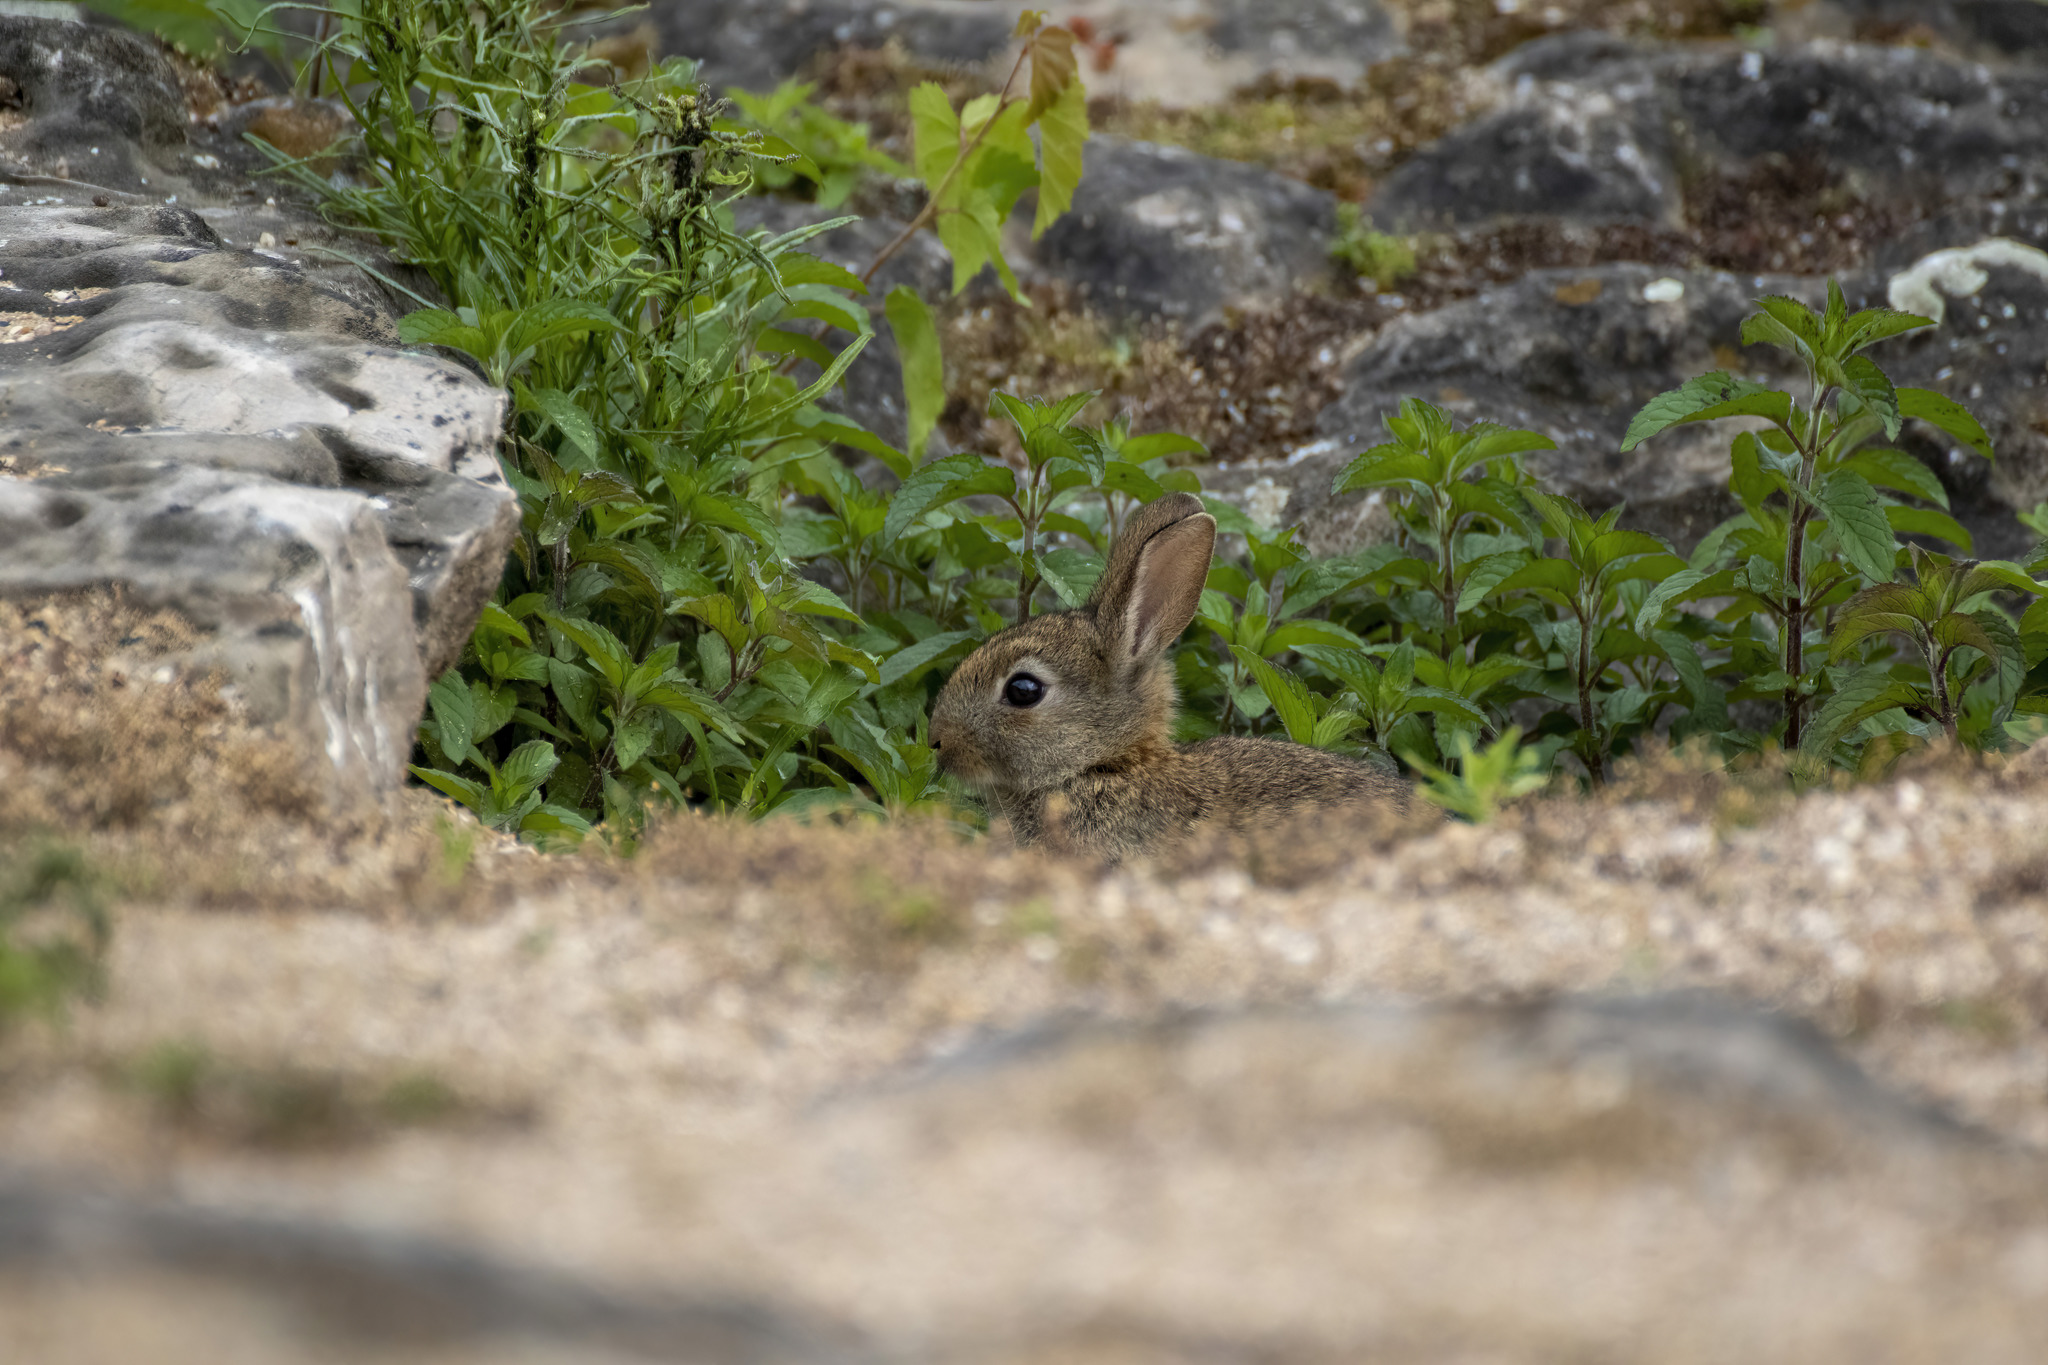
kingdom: Animalia
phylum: Chordata
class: Mammalia
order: Lagomorpha
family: Leporidae
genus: Oryctolagus
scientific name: Oryctolagus cuniculus
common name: European rabbit
